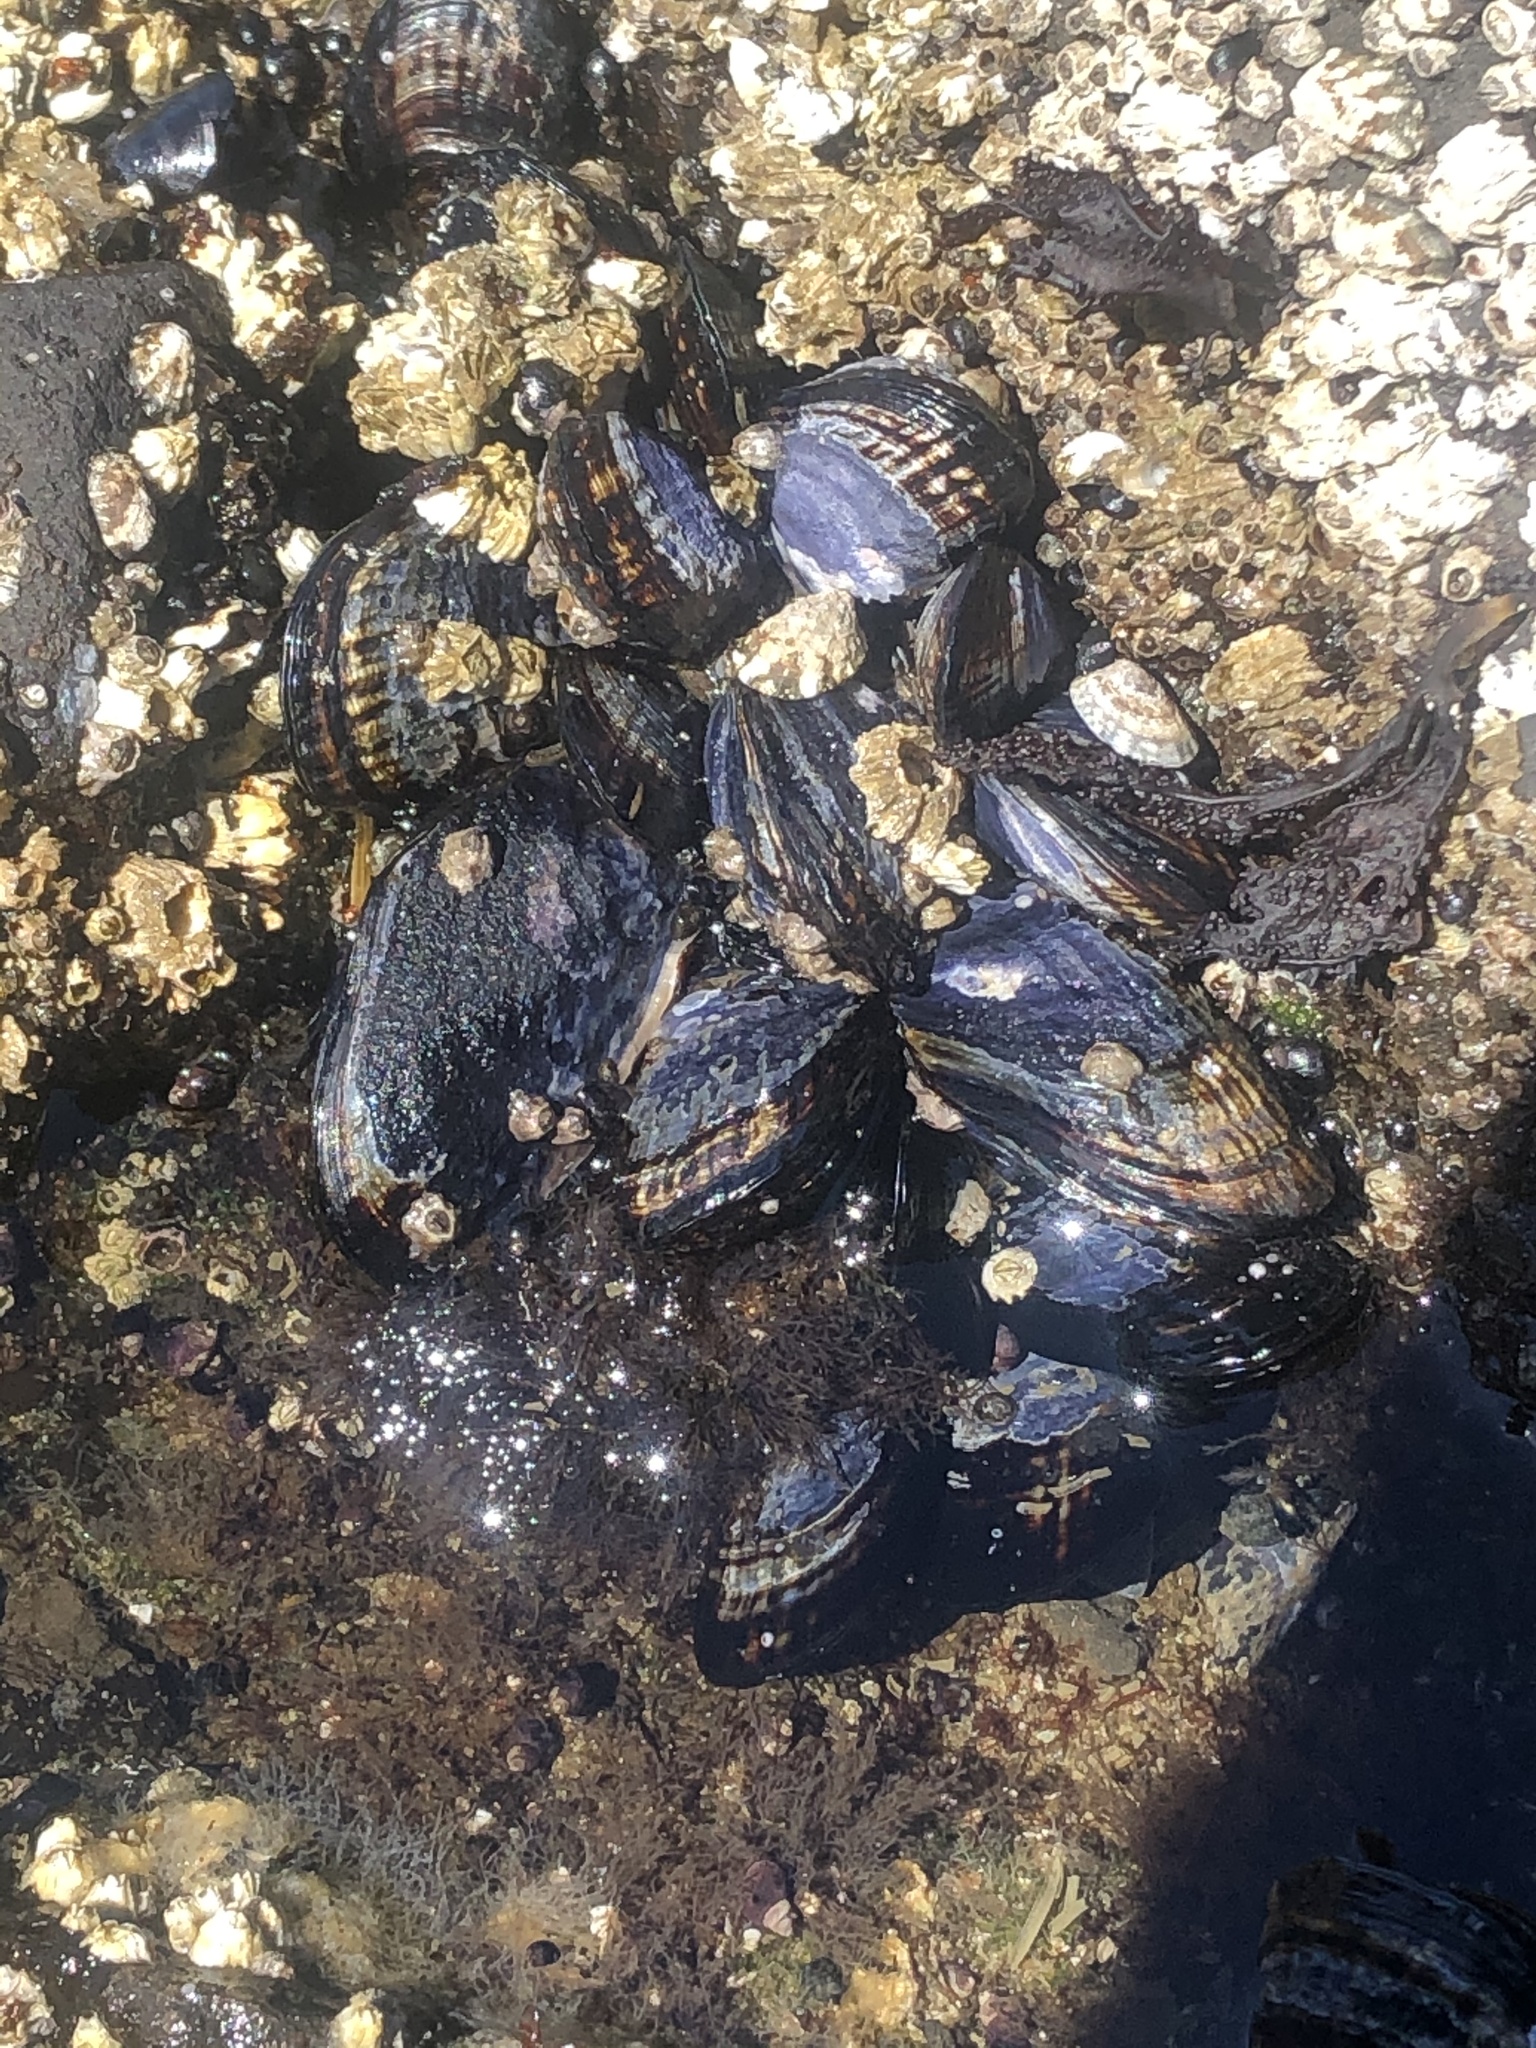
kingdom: Animalia
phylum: Mollusca
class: Bivalvia
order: Mytilida
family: Mytilidae
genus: Mytilus
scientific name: Mytilus californianus
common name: California mussel
